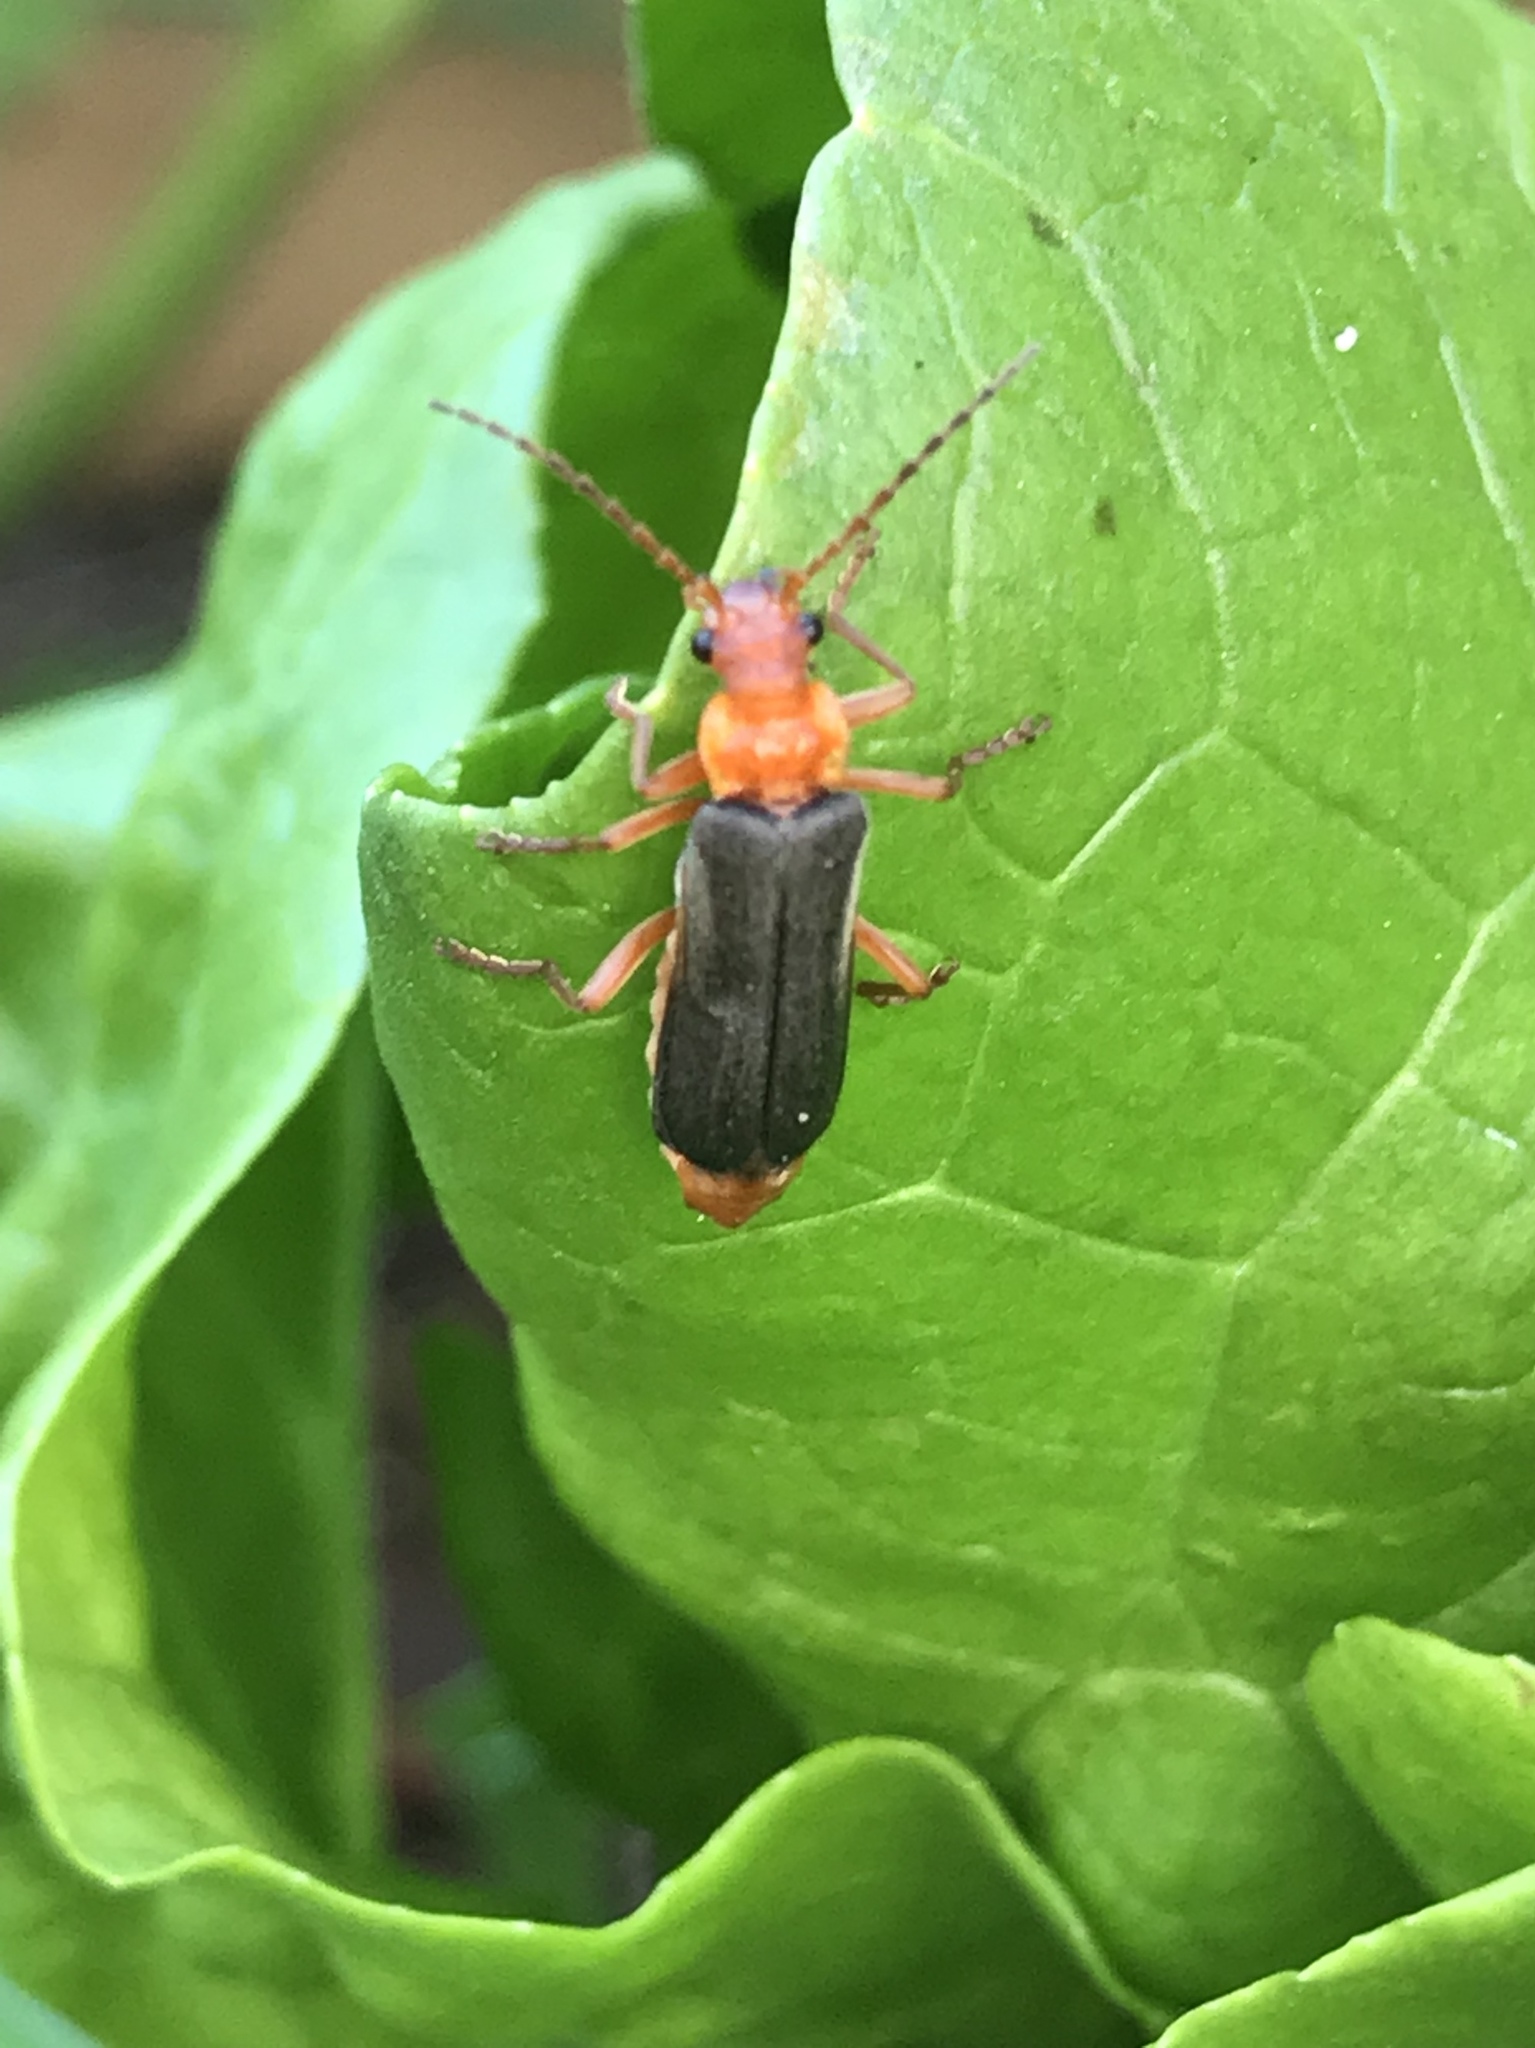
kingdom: Animalia
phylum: Arthropoda
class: Insecta
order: Coleoptera
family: Cantharidae
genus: Podabrus
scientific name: Podabrus pruinosus
